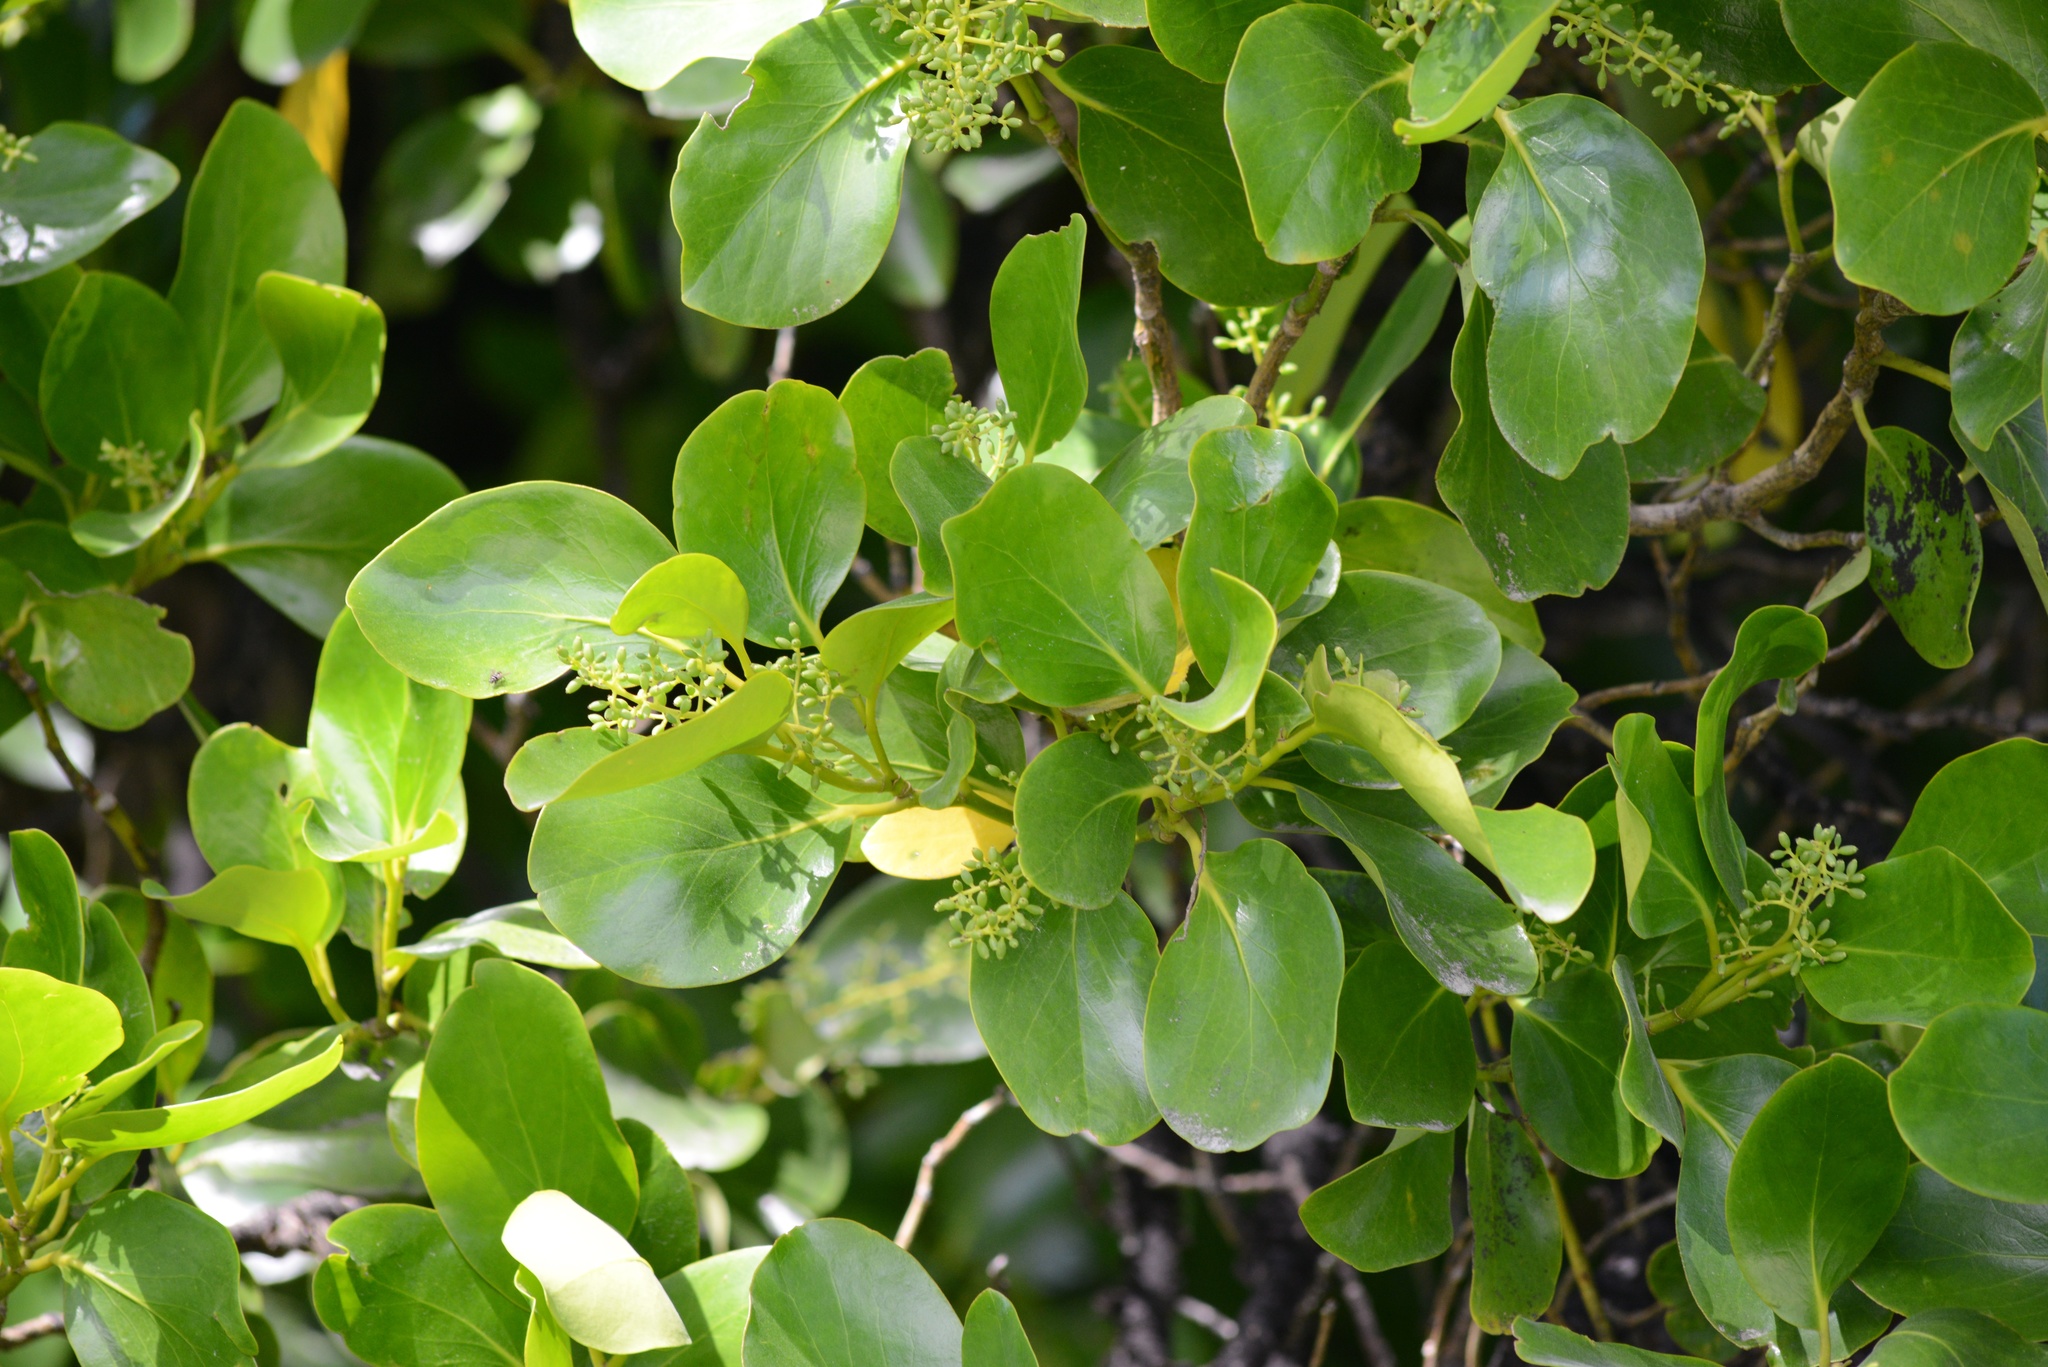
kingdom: Plantae
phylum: Tracheophyta
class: Magnoliopsida
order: Apiales
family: Griseliniaceae
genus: Griselinia
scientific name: Griselinia lucida
